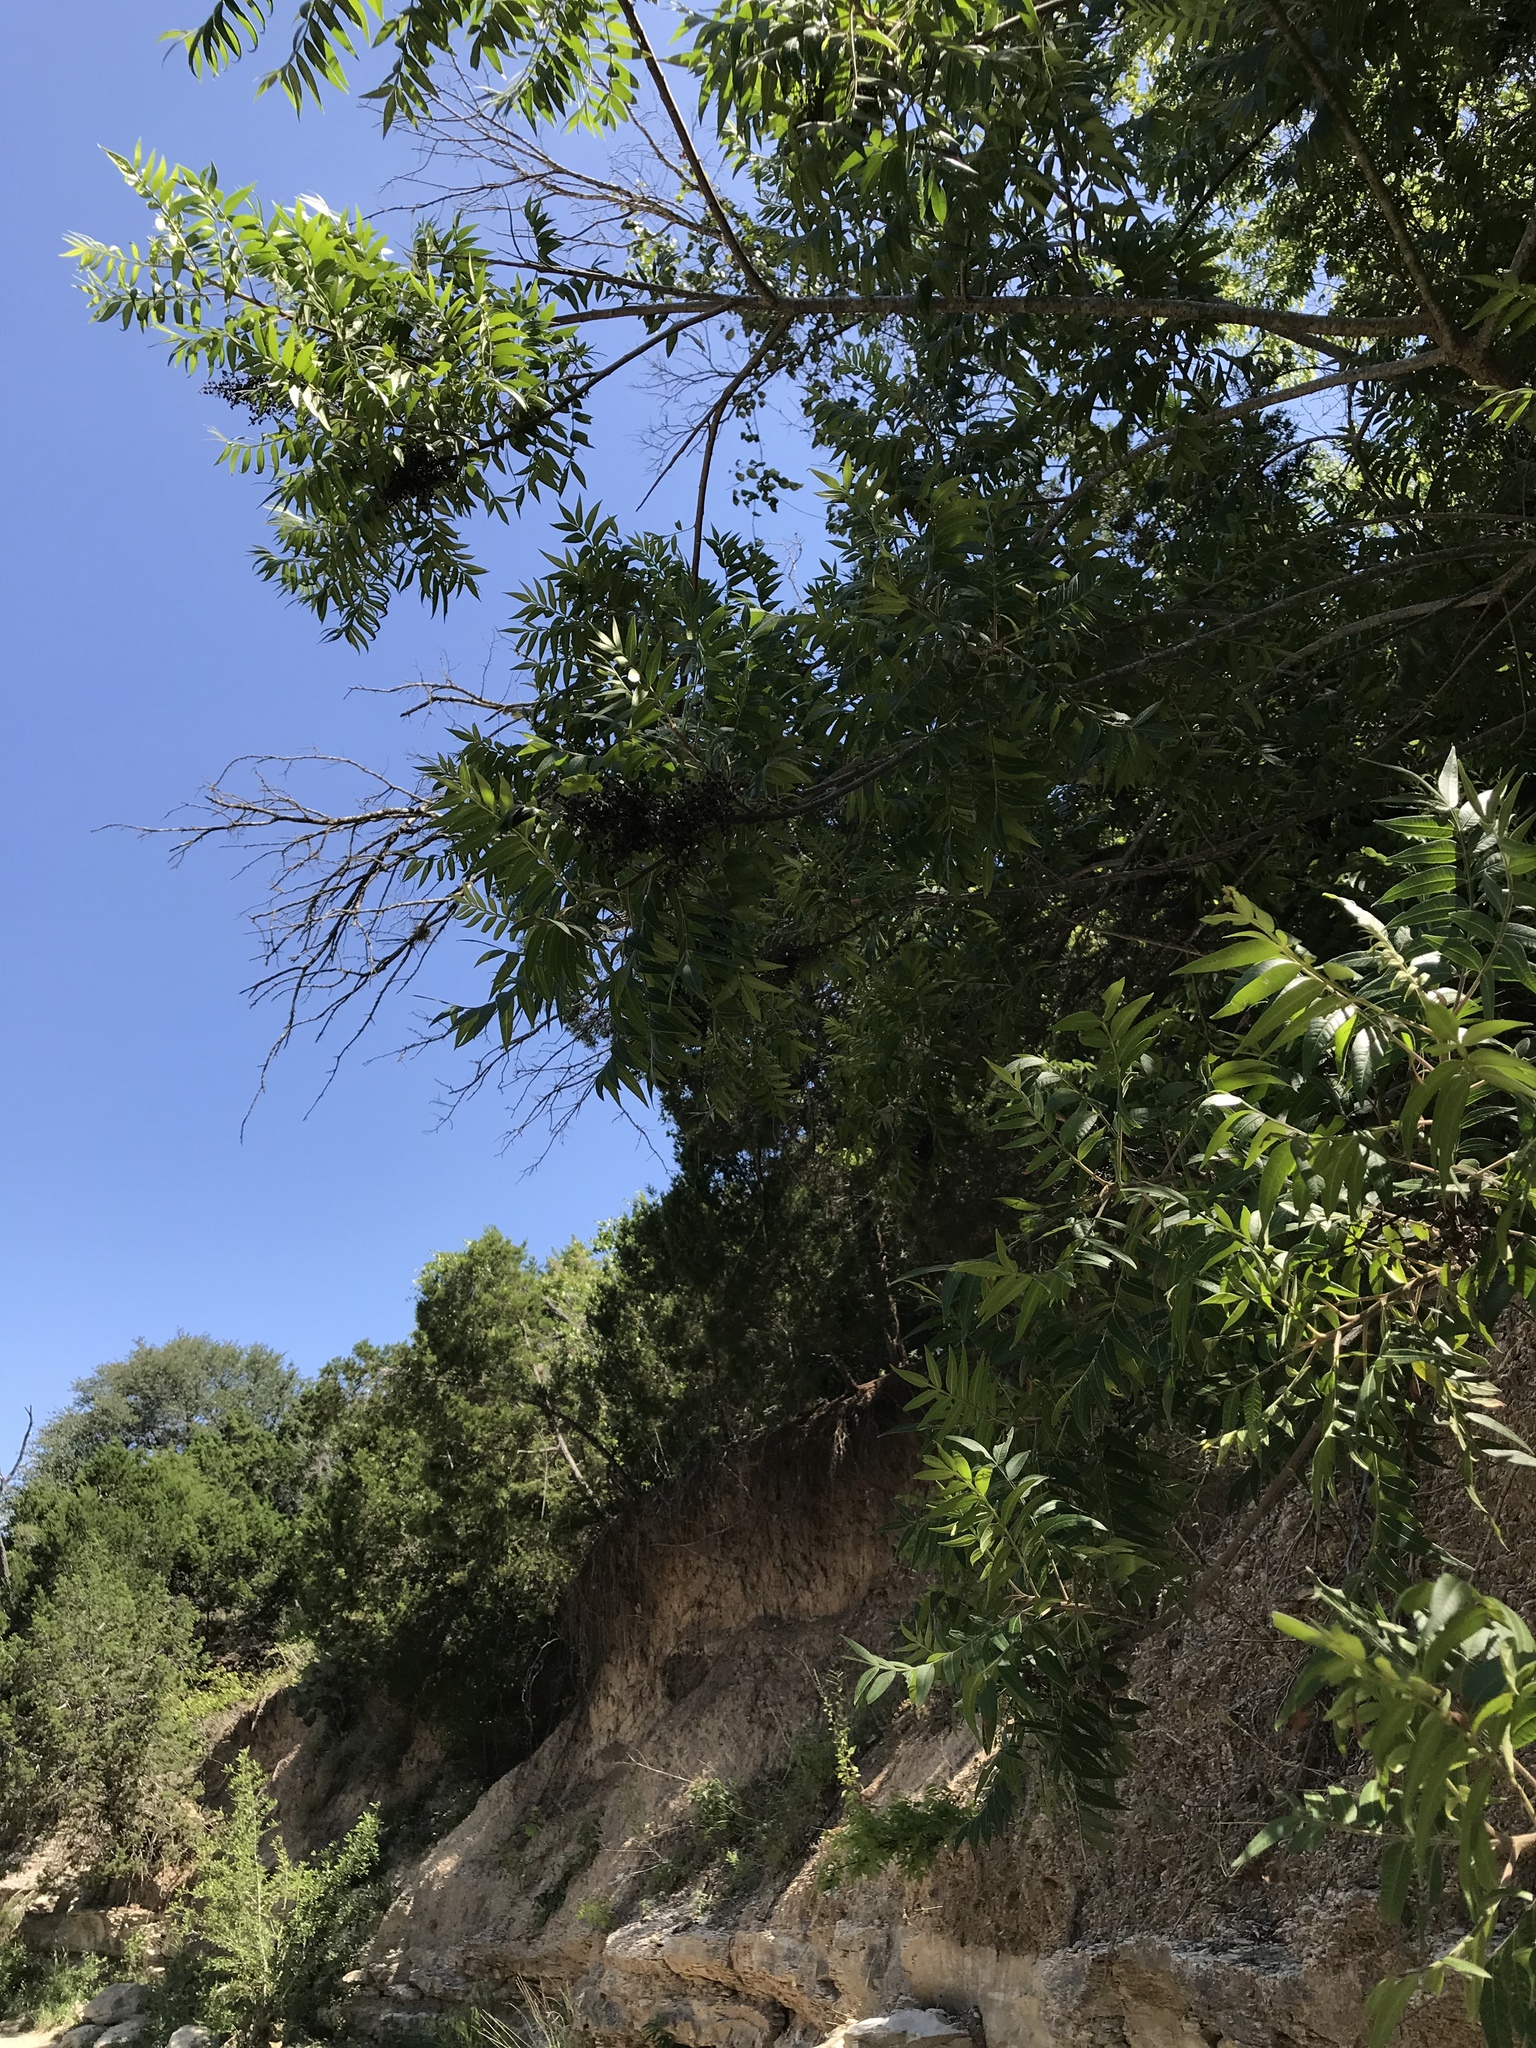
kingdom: Plantae
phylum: Tracheophyta
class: Magnoliopsida
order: Sapindales
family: Anacardiaceae
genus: Rhus
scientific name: Rhus lanceolata
